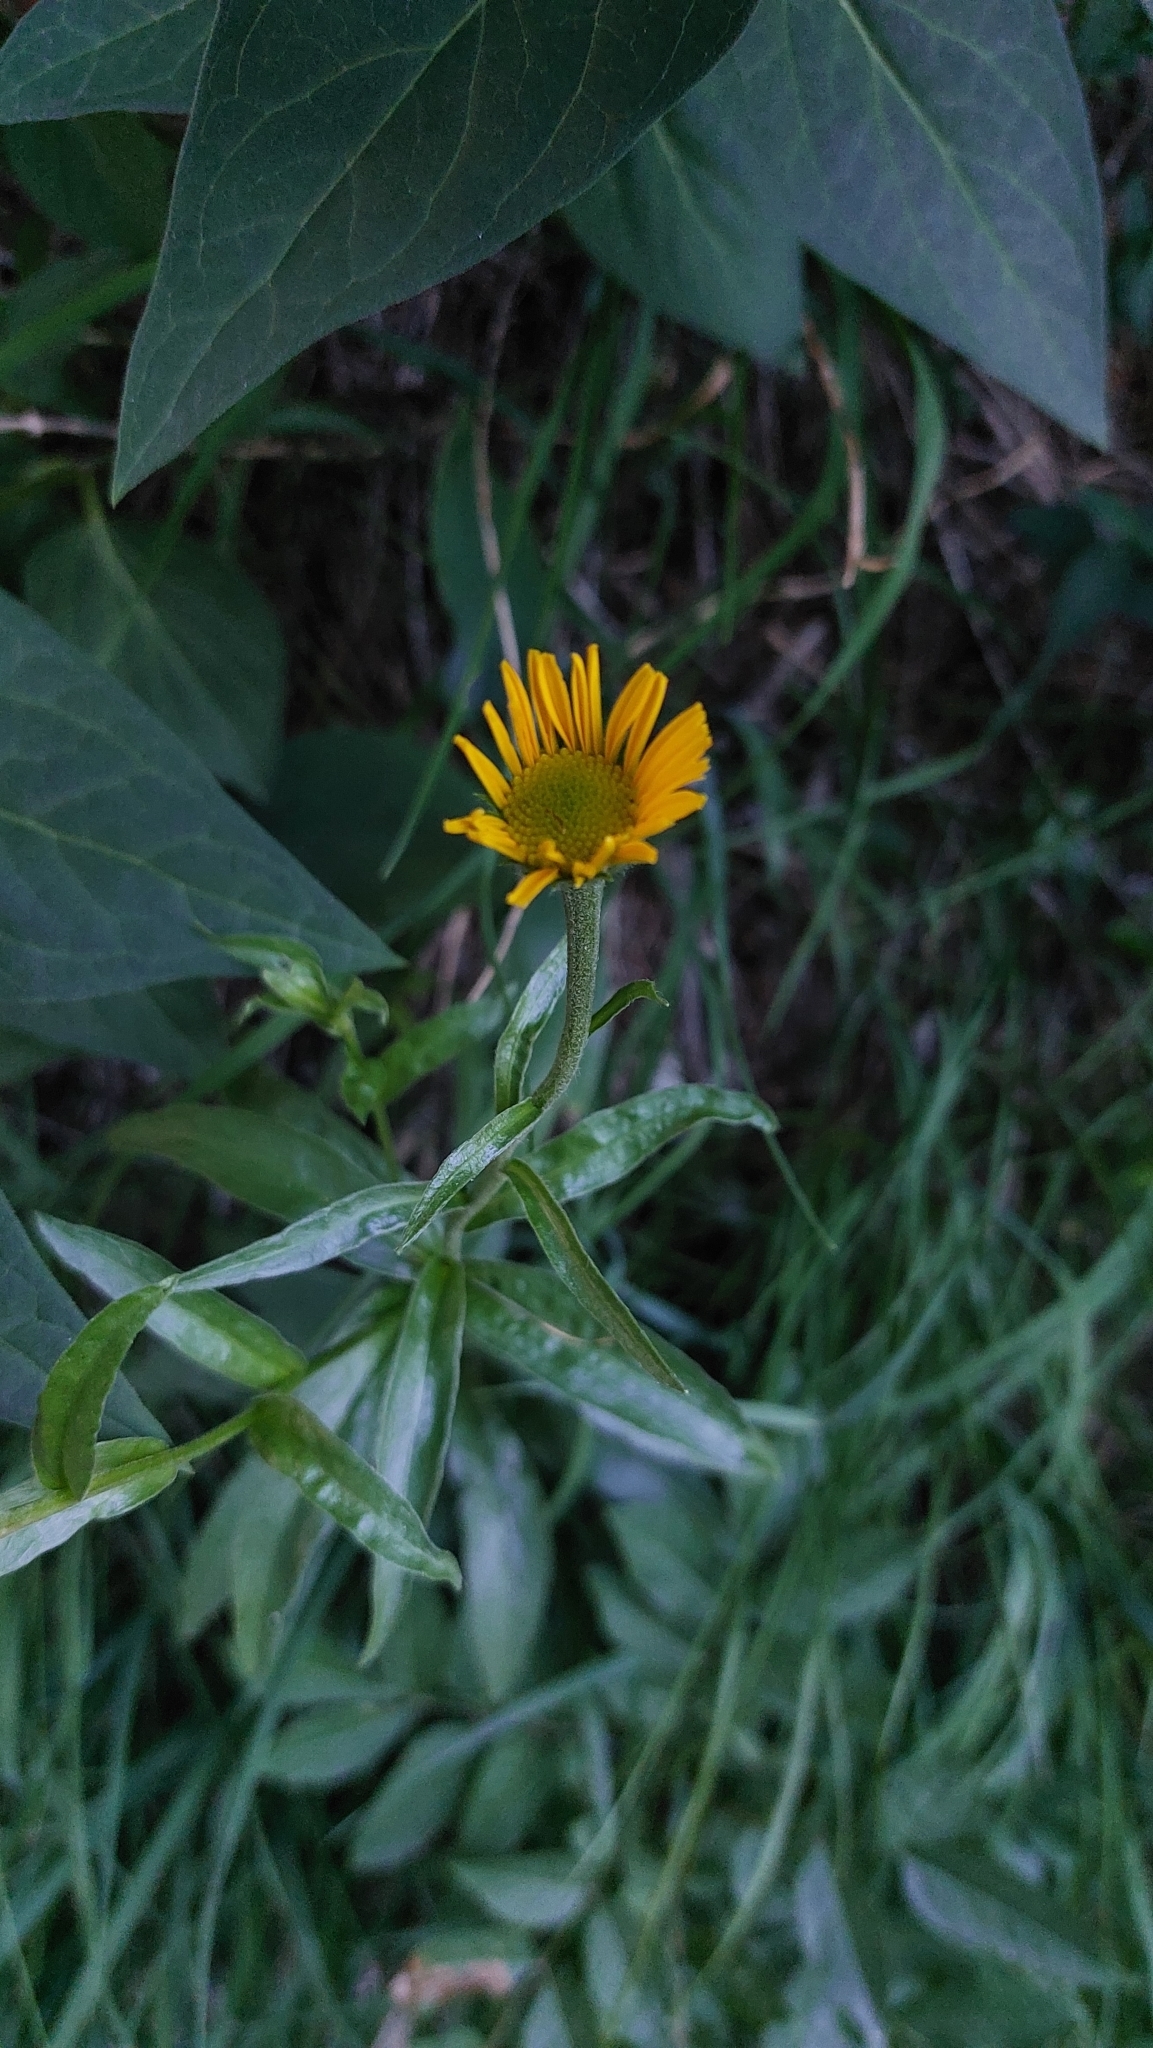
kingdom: Plantae
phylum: Tracheophyta
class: Magnoliopsida
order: Asterales
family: Asteraceae
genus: Buphthalmum
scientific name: Buphthalmum salicifolium
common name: Willow-leaved yellow-oxeye
